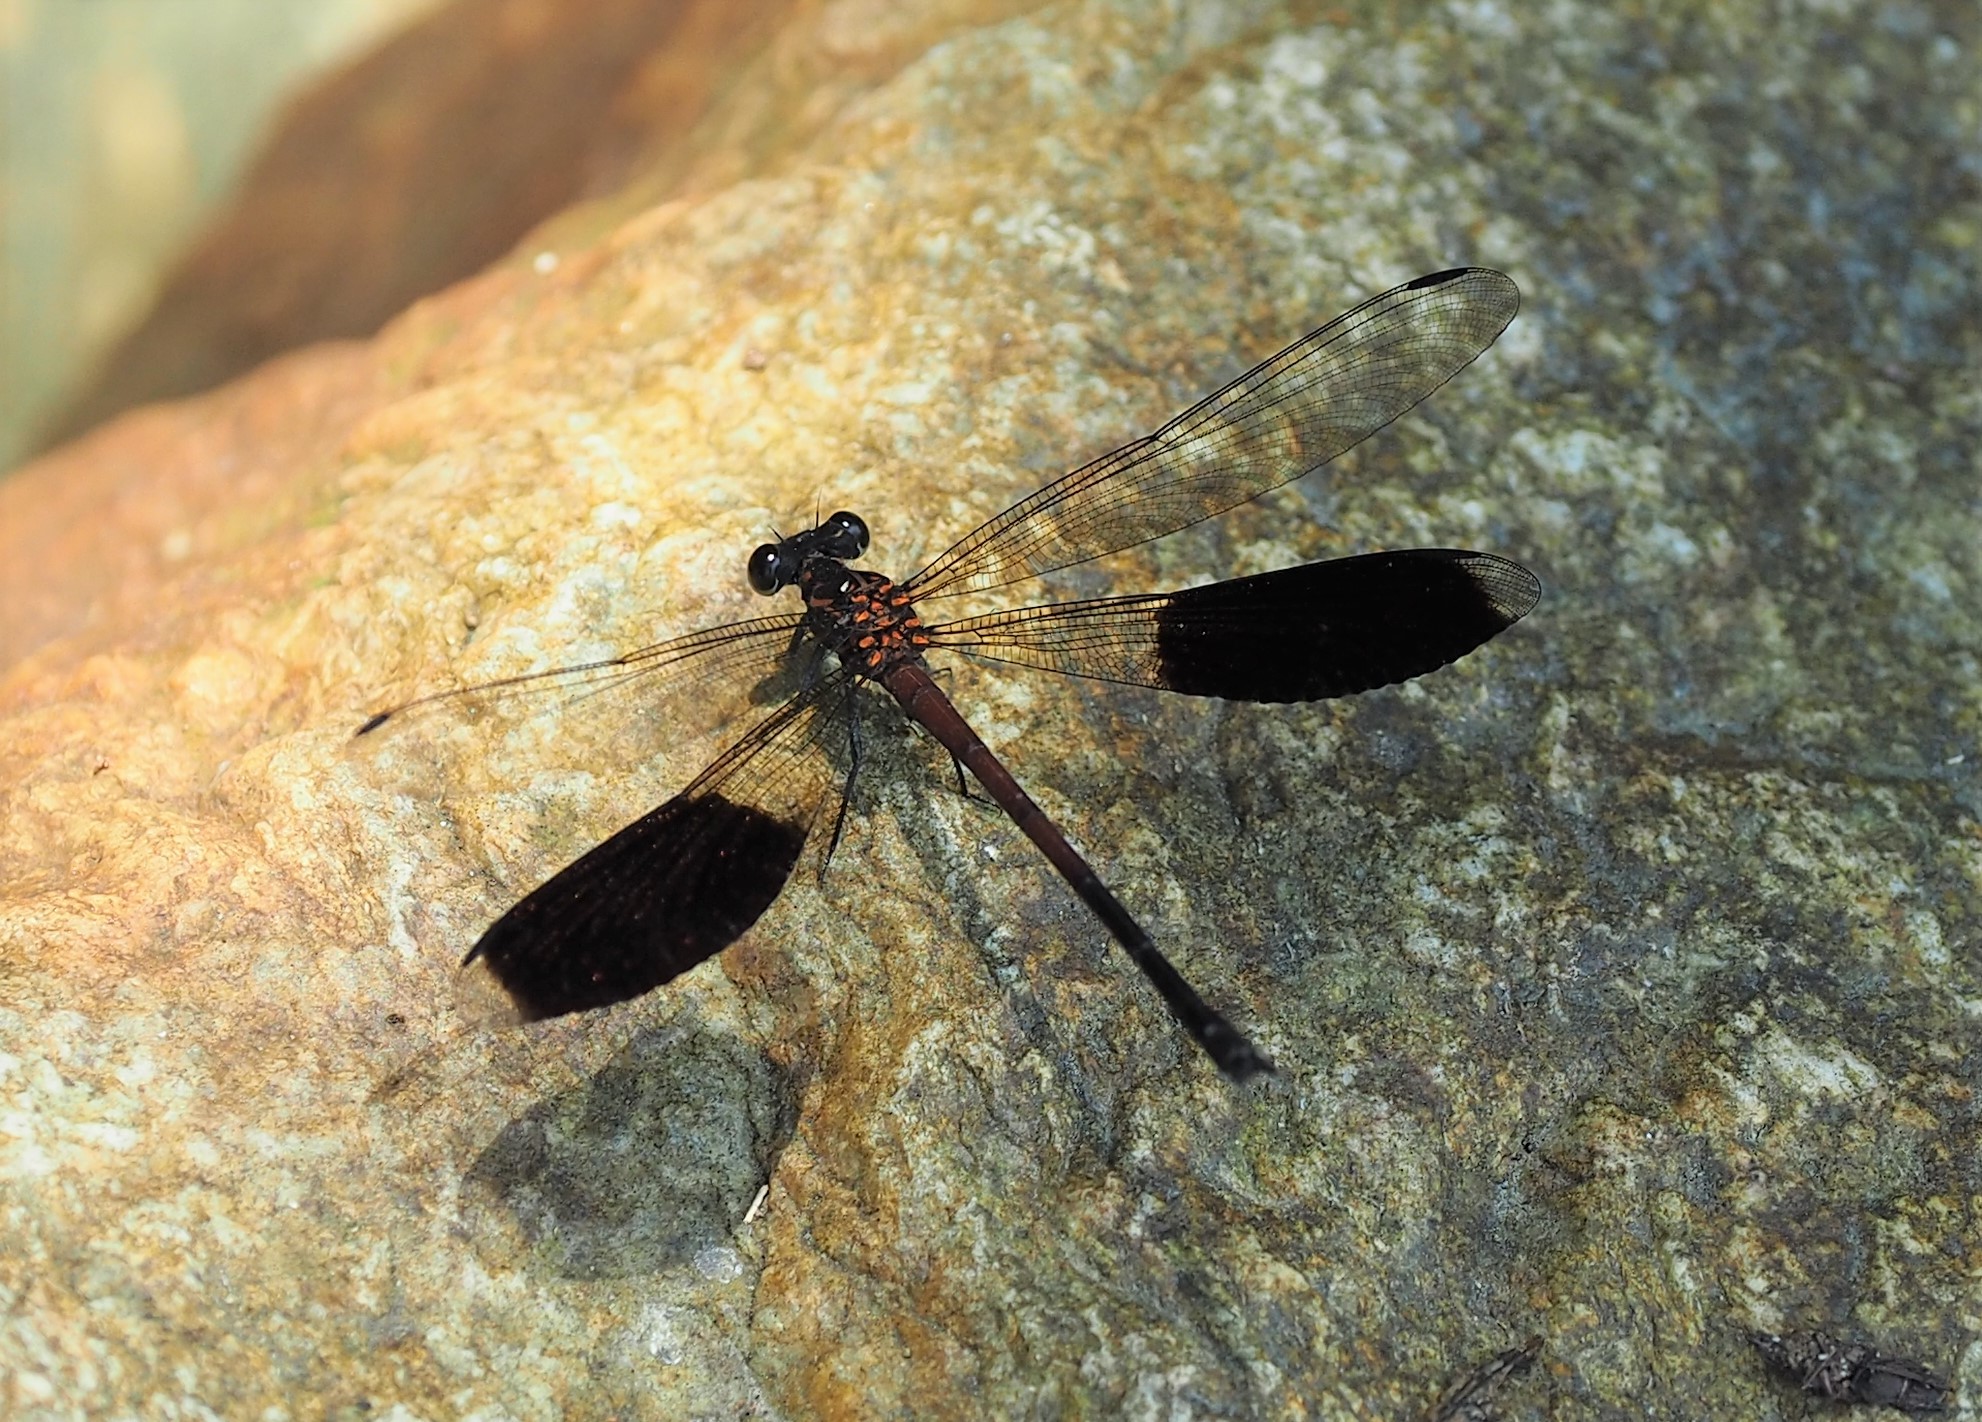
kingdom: Animalia
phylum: Arthropoda
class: Insecta
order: Odonata
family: Euphaeidae
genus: Euphaea
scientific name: Euphaea formosa
